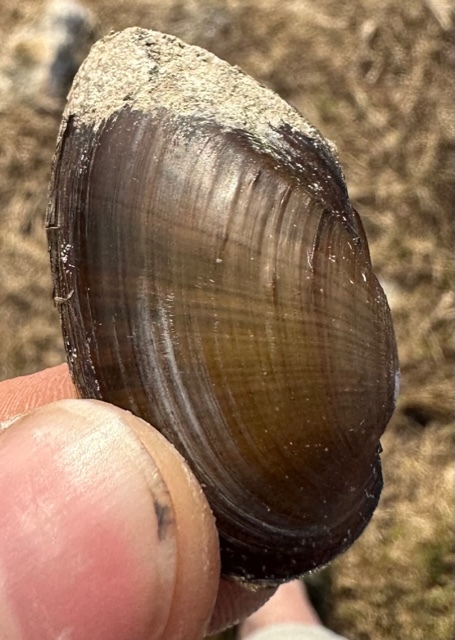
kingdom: Animalia
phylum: Mollusca
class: Bivalvia
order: Unionida
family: Unionidae
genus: Elliptio
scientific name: Elliptio jayensis
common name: Florida spike
